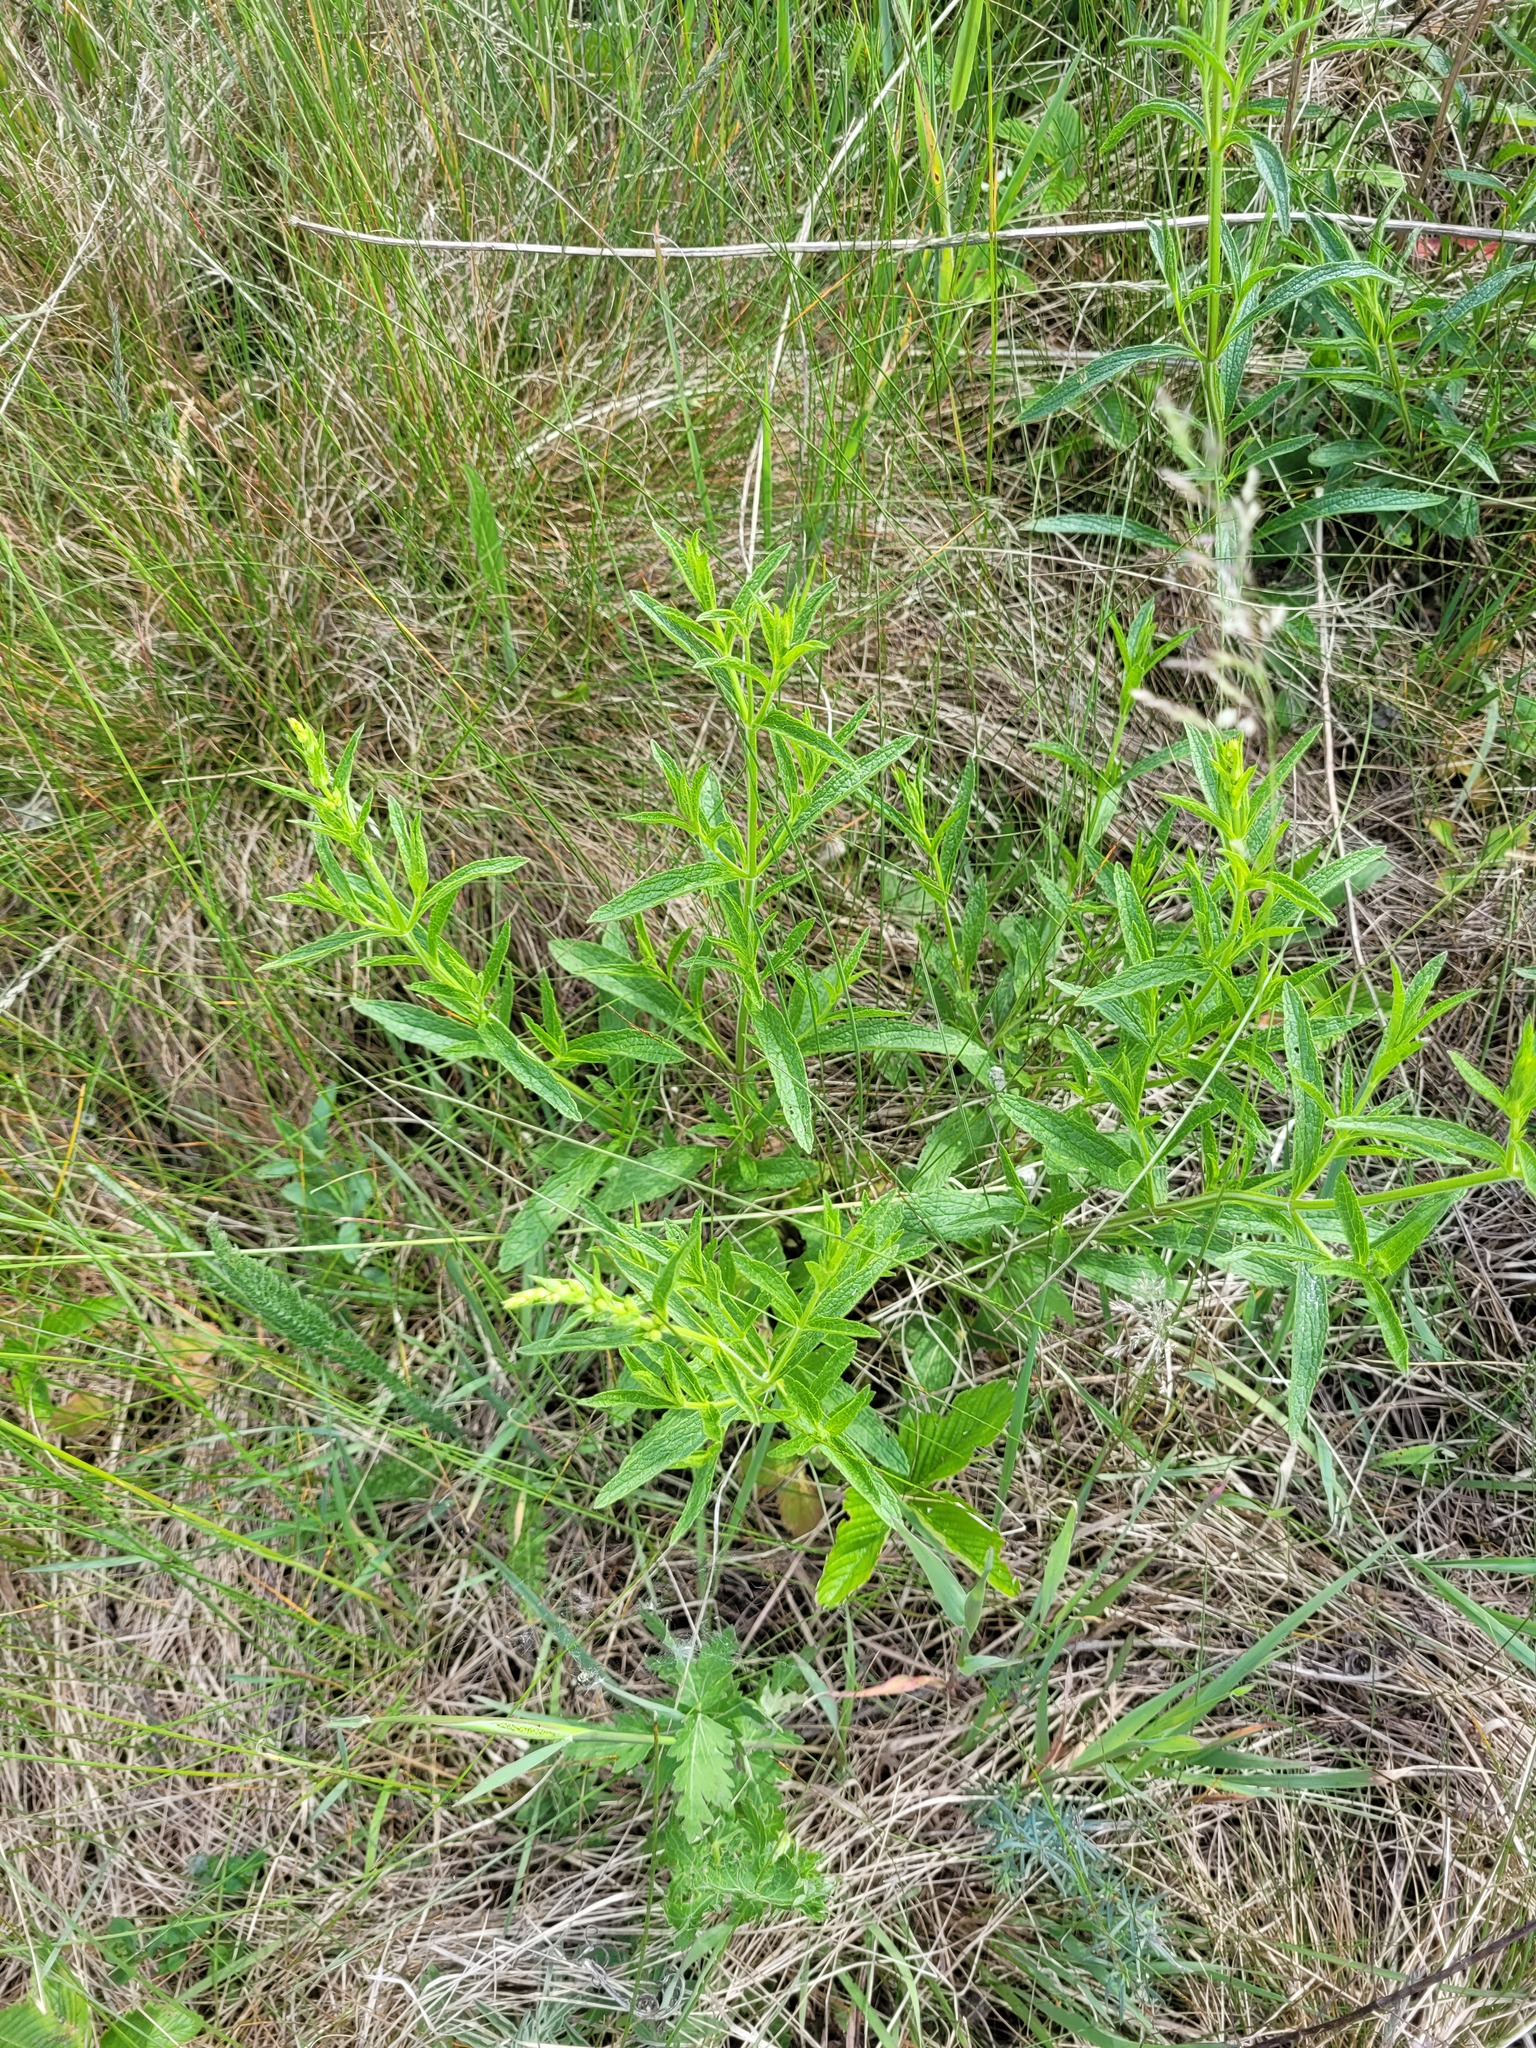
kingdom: Plantae
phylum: Tracheophyta
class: Magnoliopsida
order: Lamiales
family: Lamiaceae
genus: Stachys
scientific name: Stachys recta
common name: Perennial yellow-woundwort
